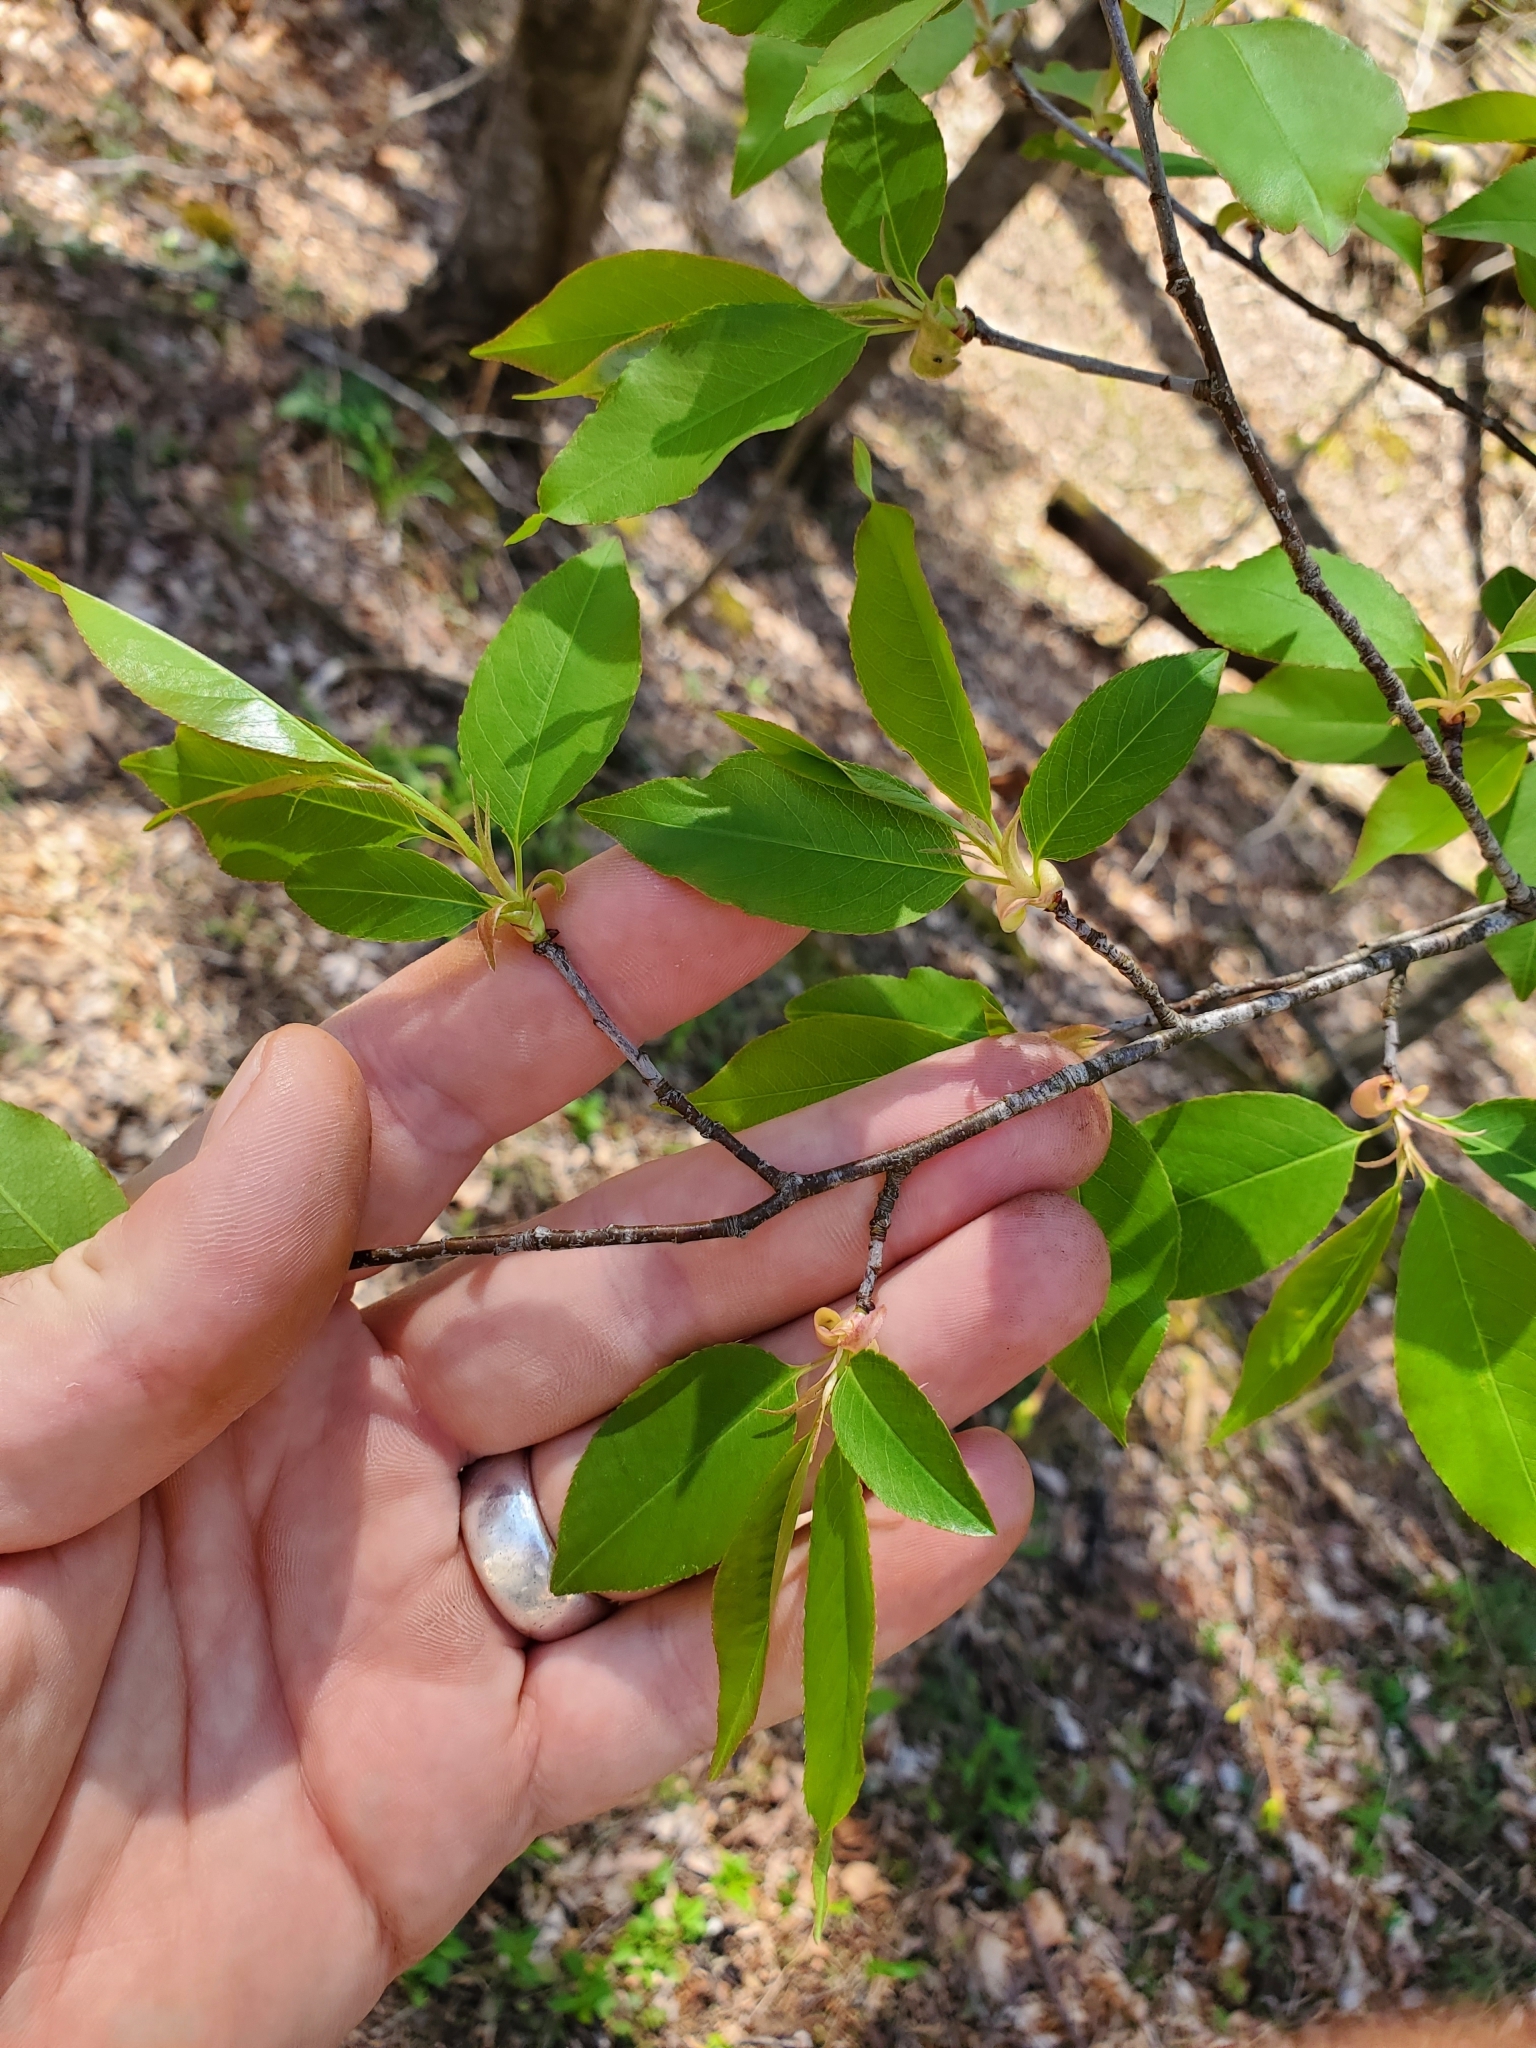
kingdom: Plantae
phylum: Tracheophyta
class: Magnoliopsida
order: Rosales
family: Rosaceae
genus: Prunus
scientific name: Prunus serotina
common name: Black cherry
